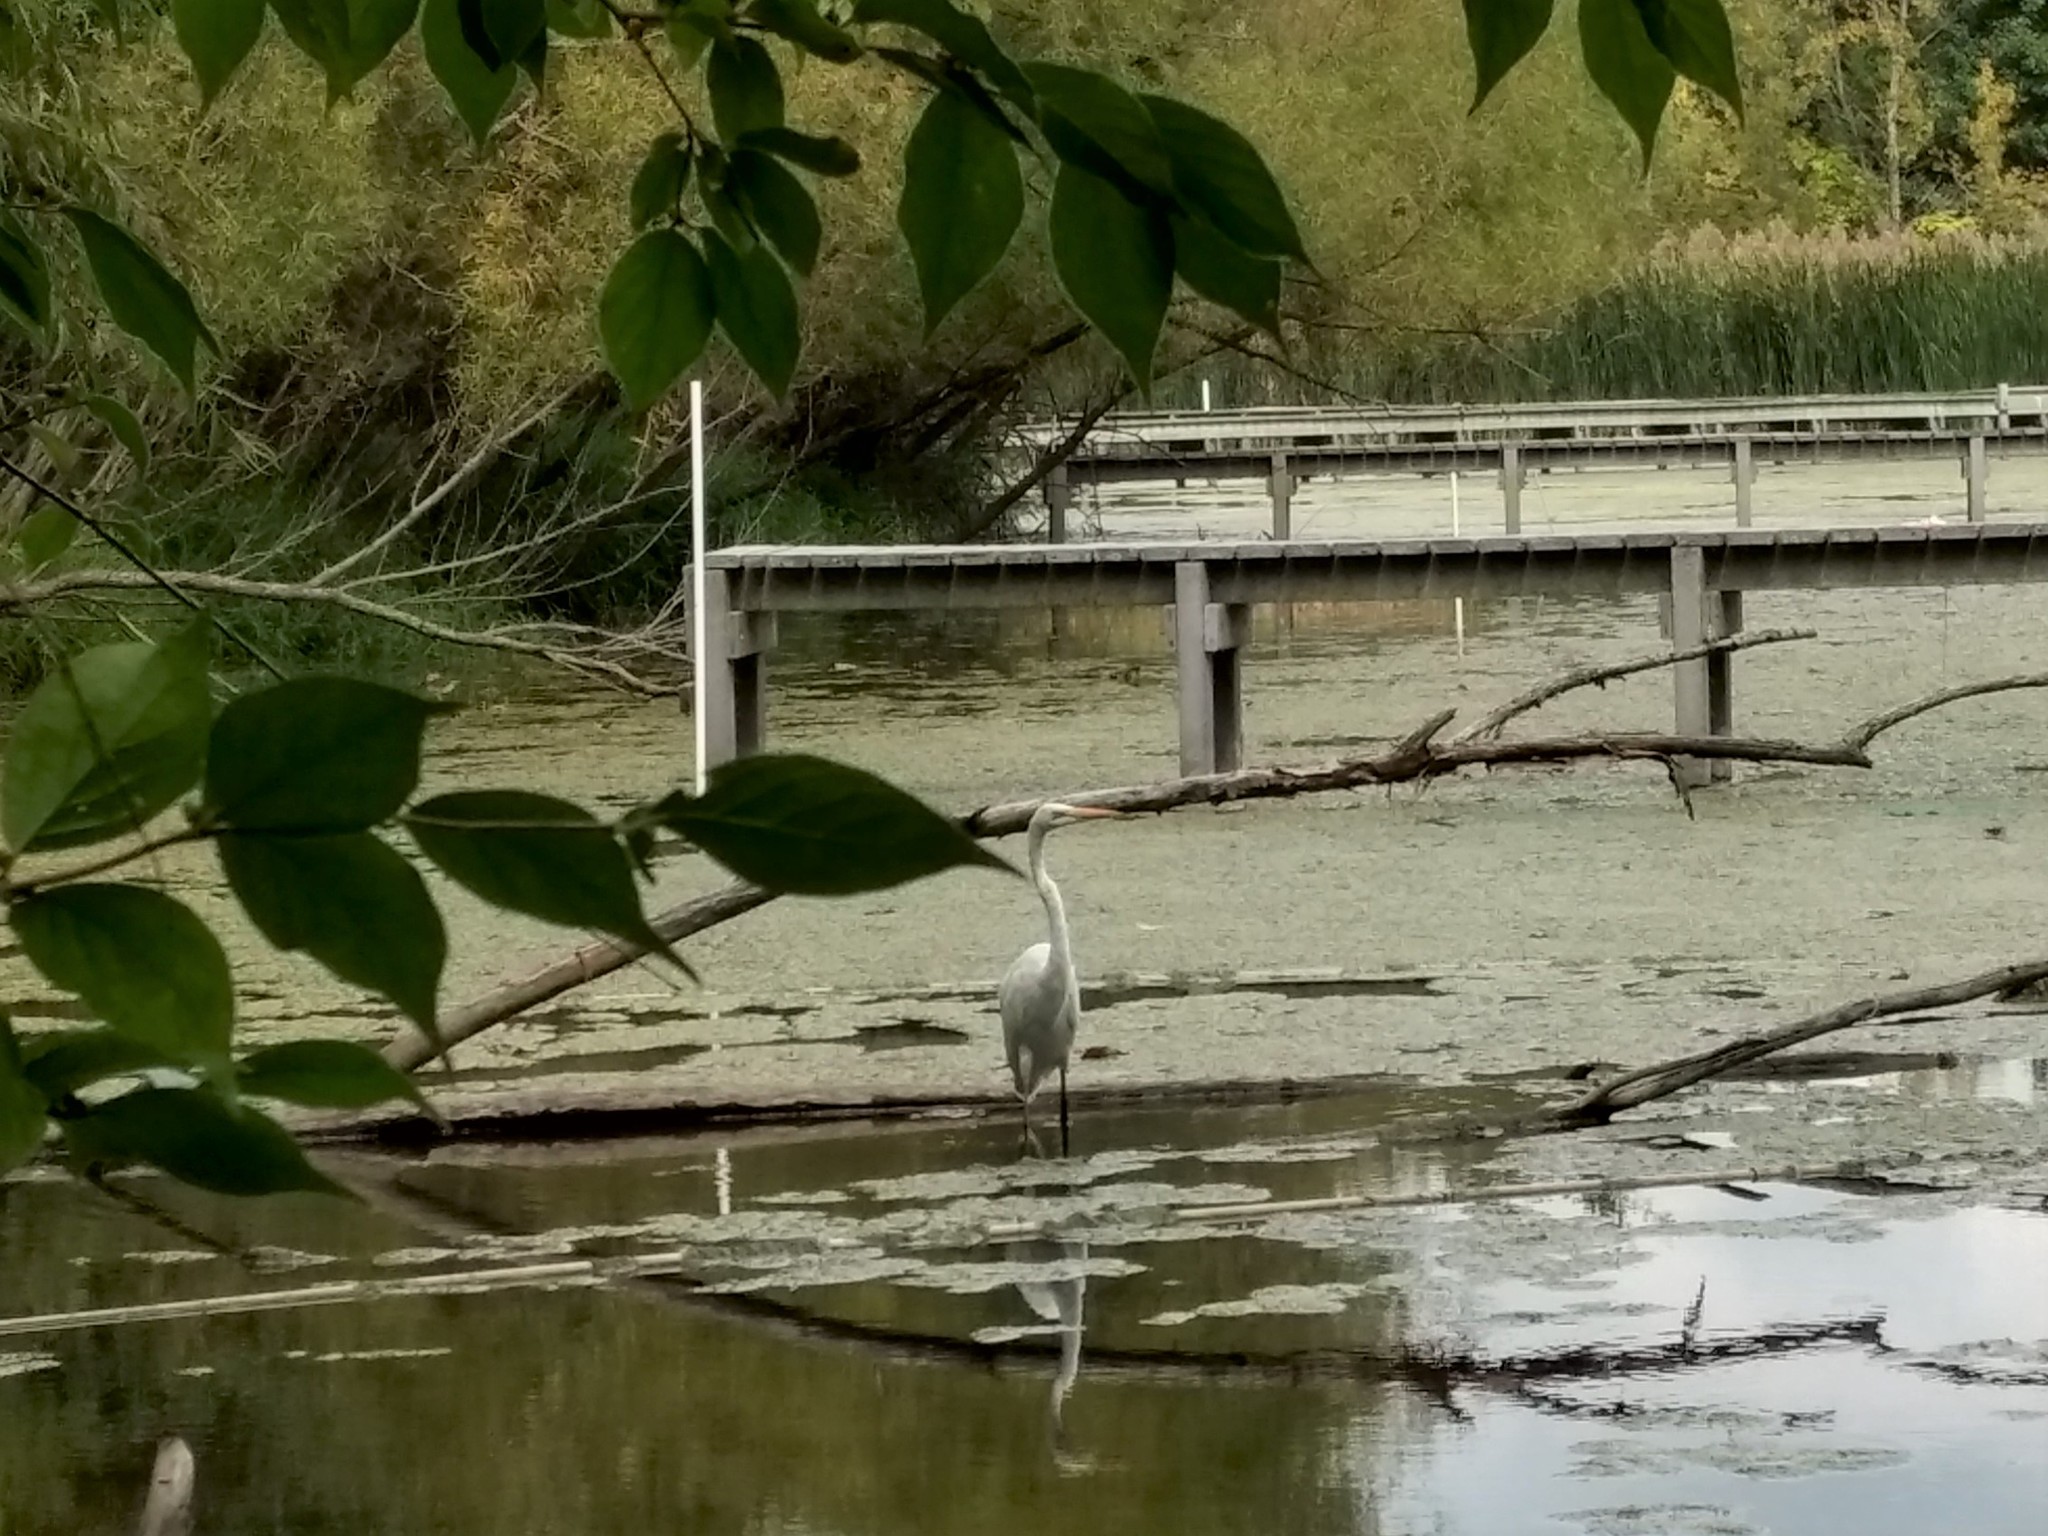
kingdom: Animalia
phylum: Chordata
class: Aves
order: Pelecaniformes
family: Ardeidae
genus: Ardea
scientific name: Ardea alba
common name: Great egret
